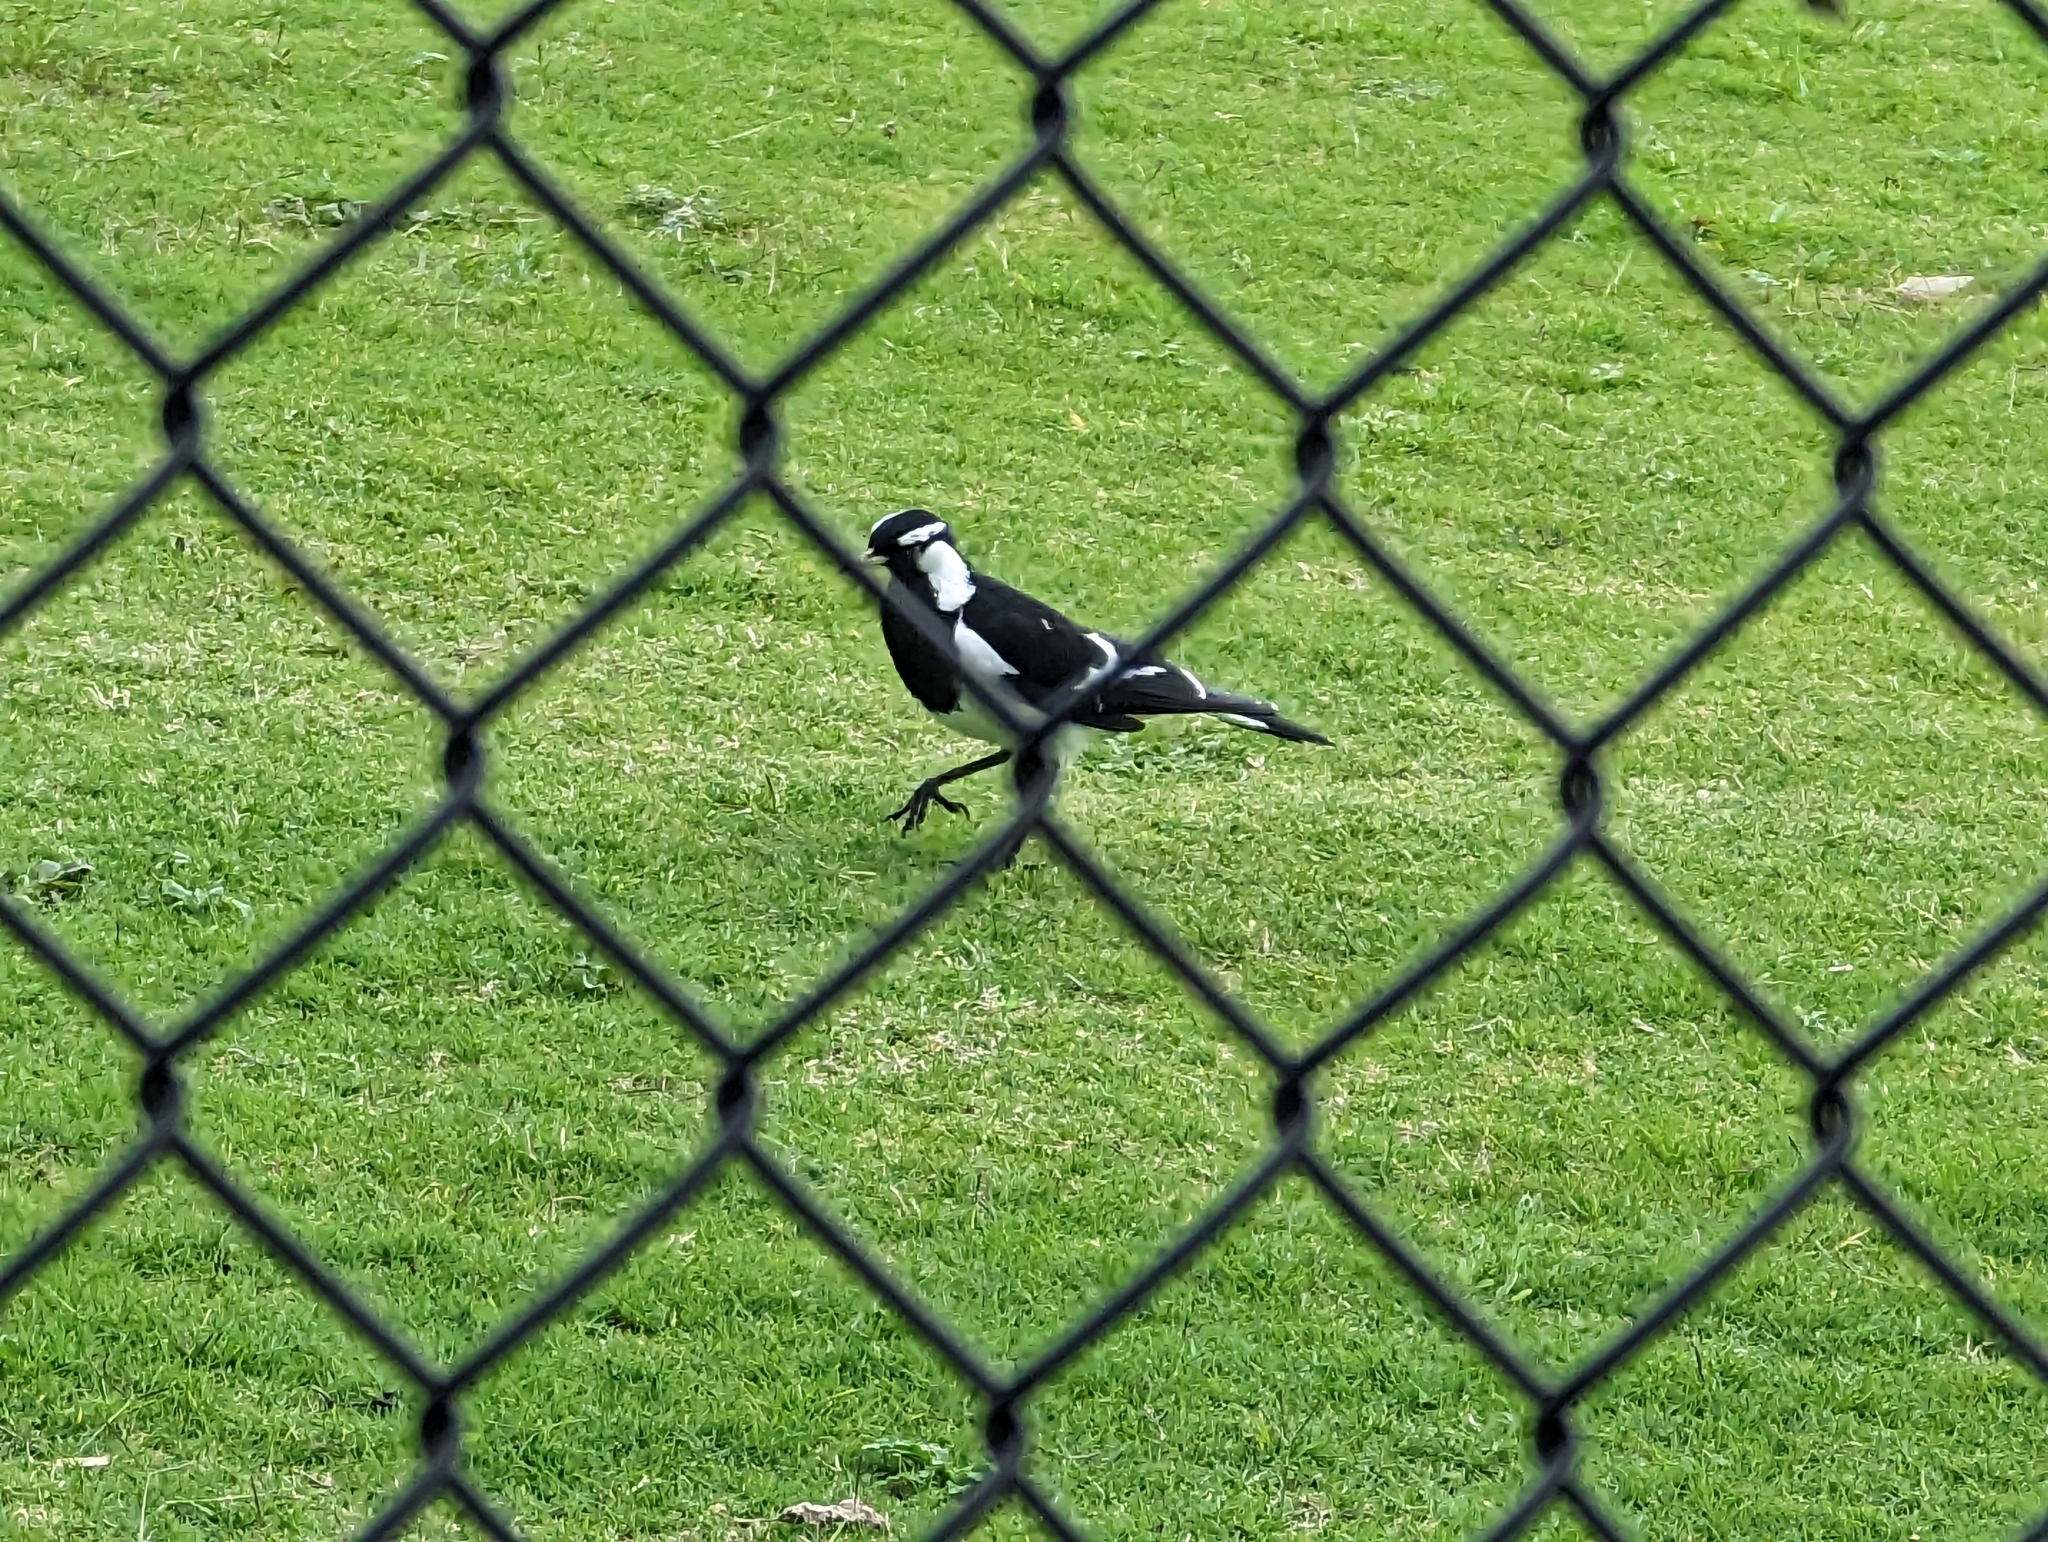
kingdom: Animalia
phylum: Chordata
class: Aves
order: Passeriformes
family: Monarchidae
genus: Grallina
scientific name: Grallina cyanoleuca
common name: Magpie-lark
